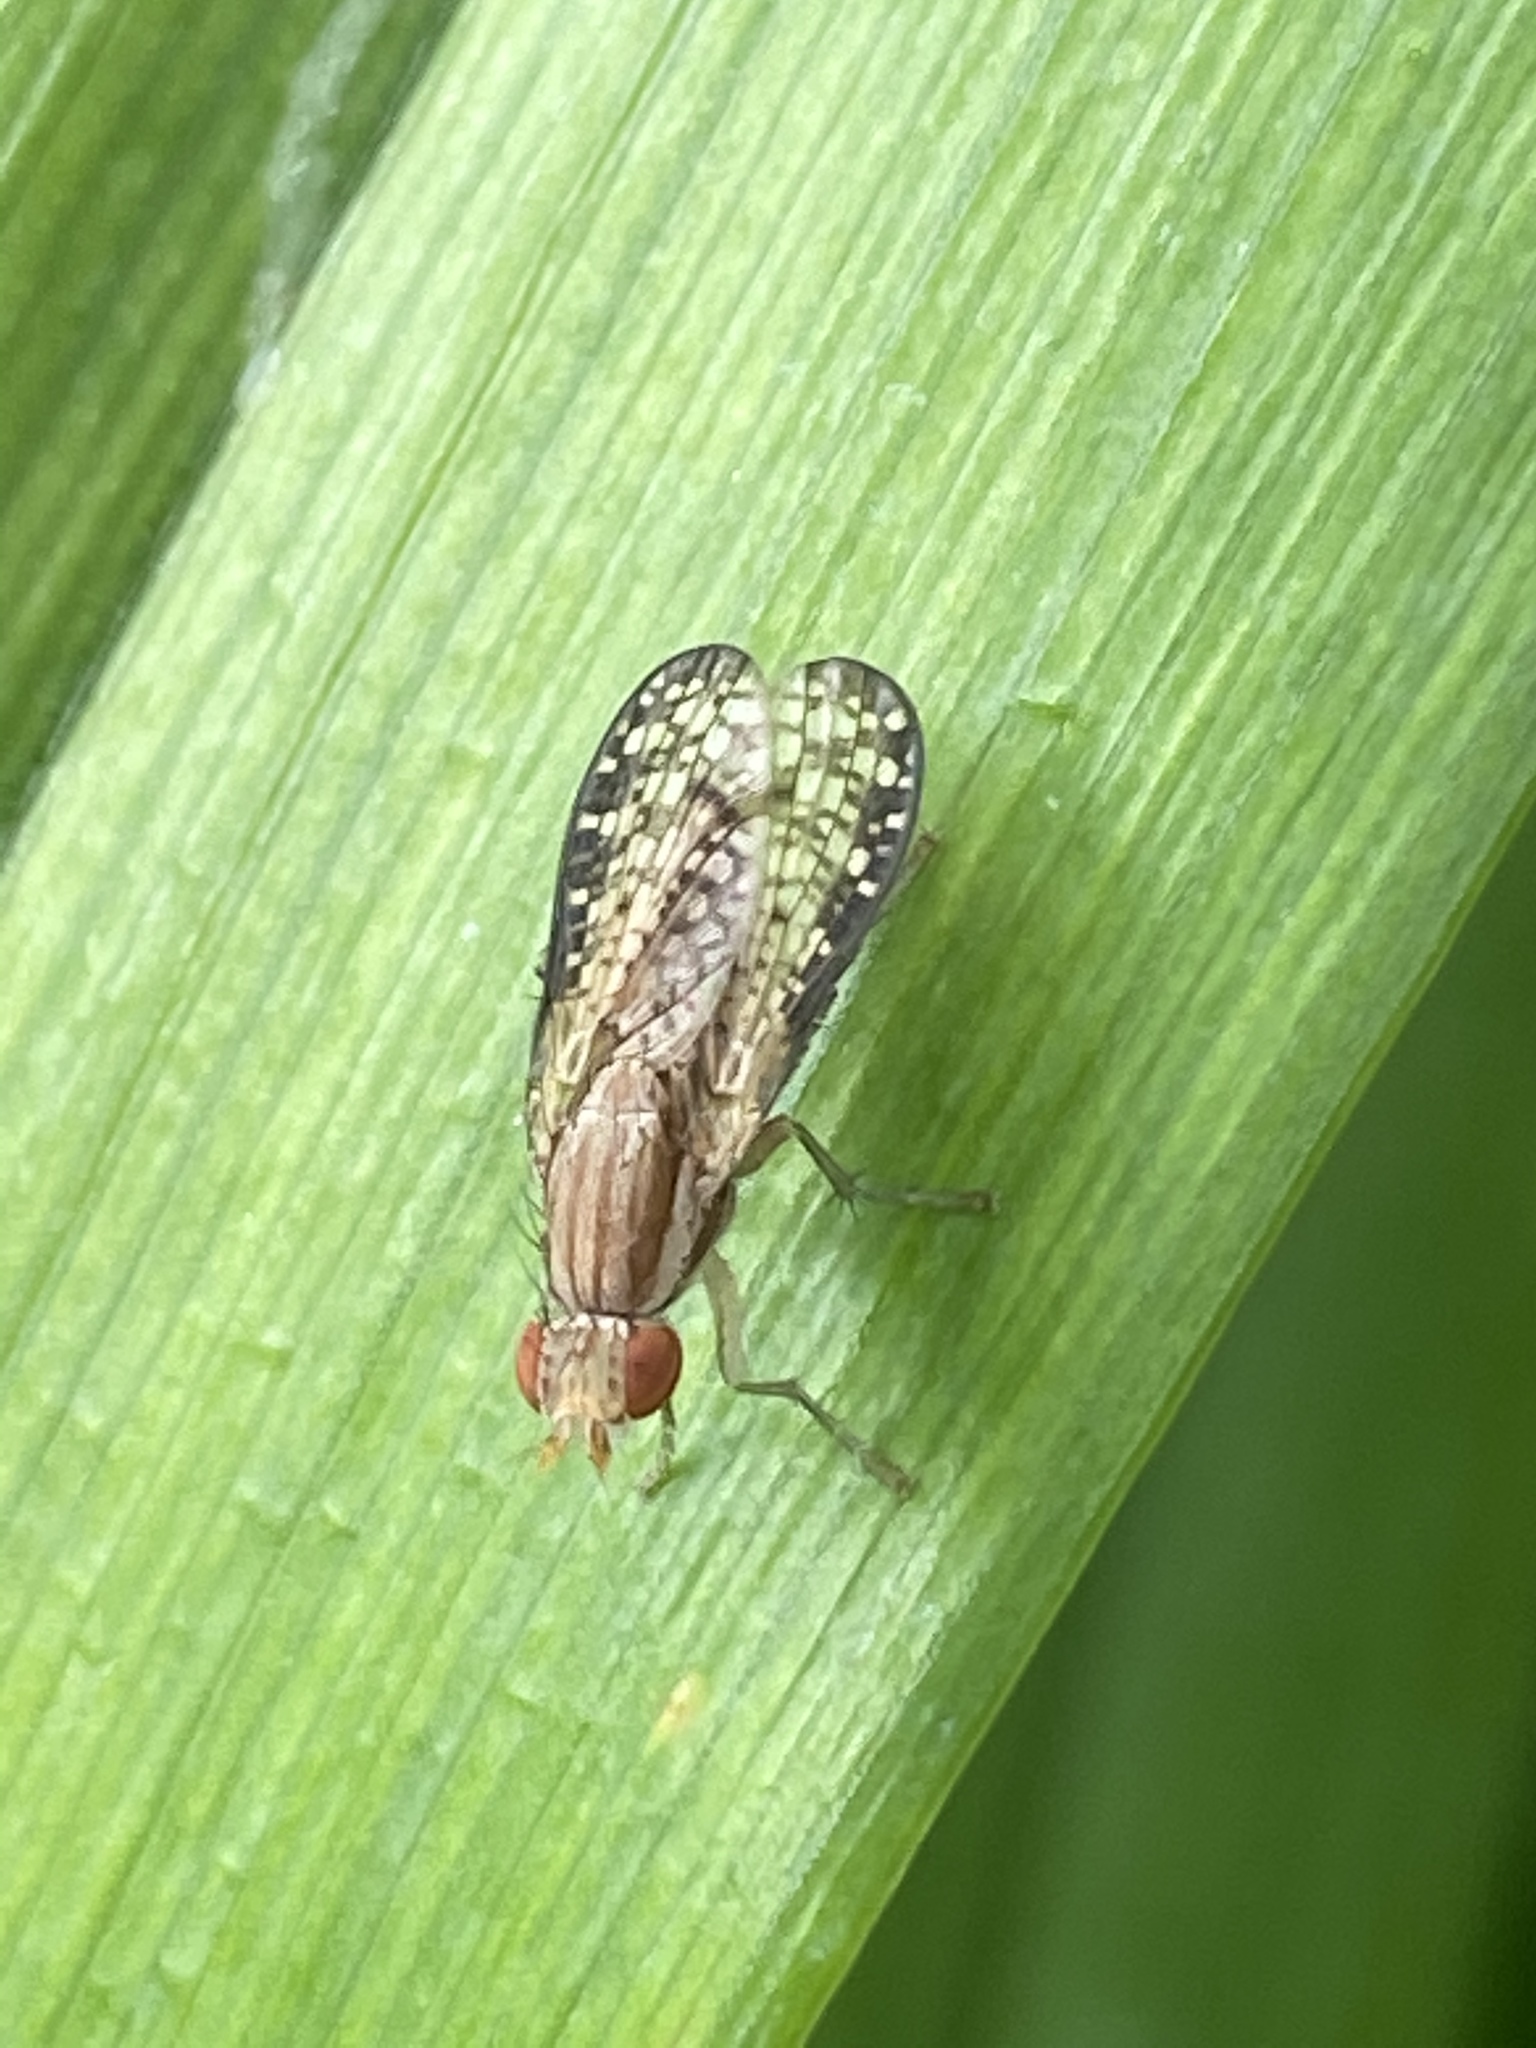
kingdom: Animalia
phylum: Arthropoda
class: Insecta
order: Diptera
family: Sciomyzidae
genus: Trypetoptera
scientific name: Trypetoptera canadensis
